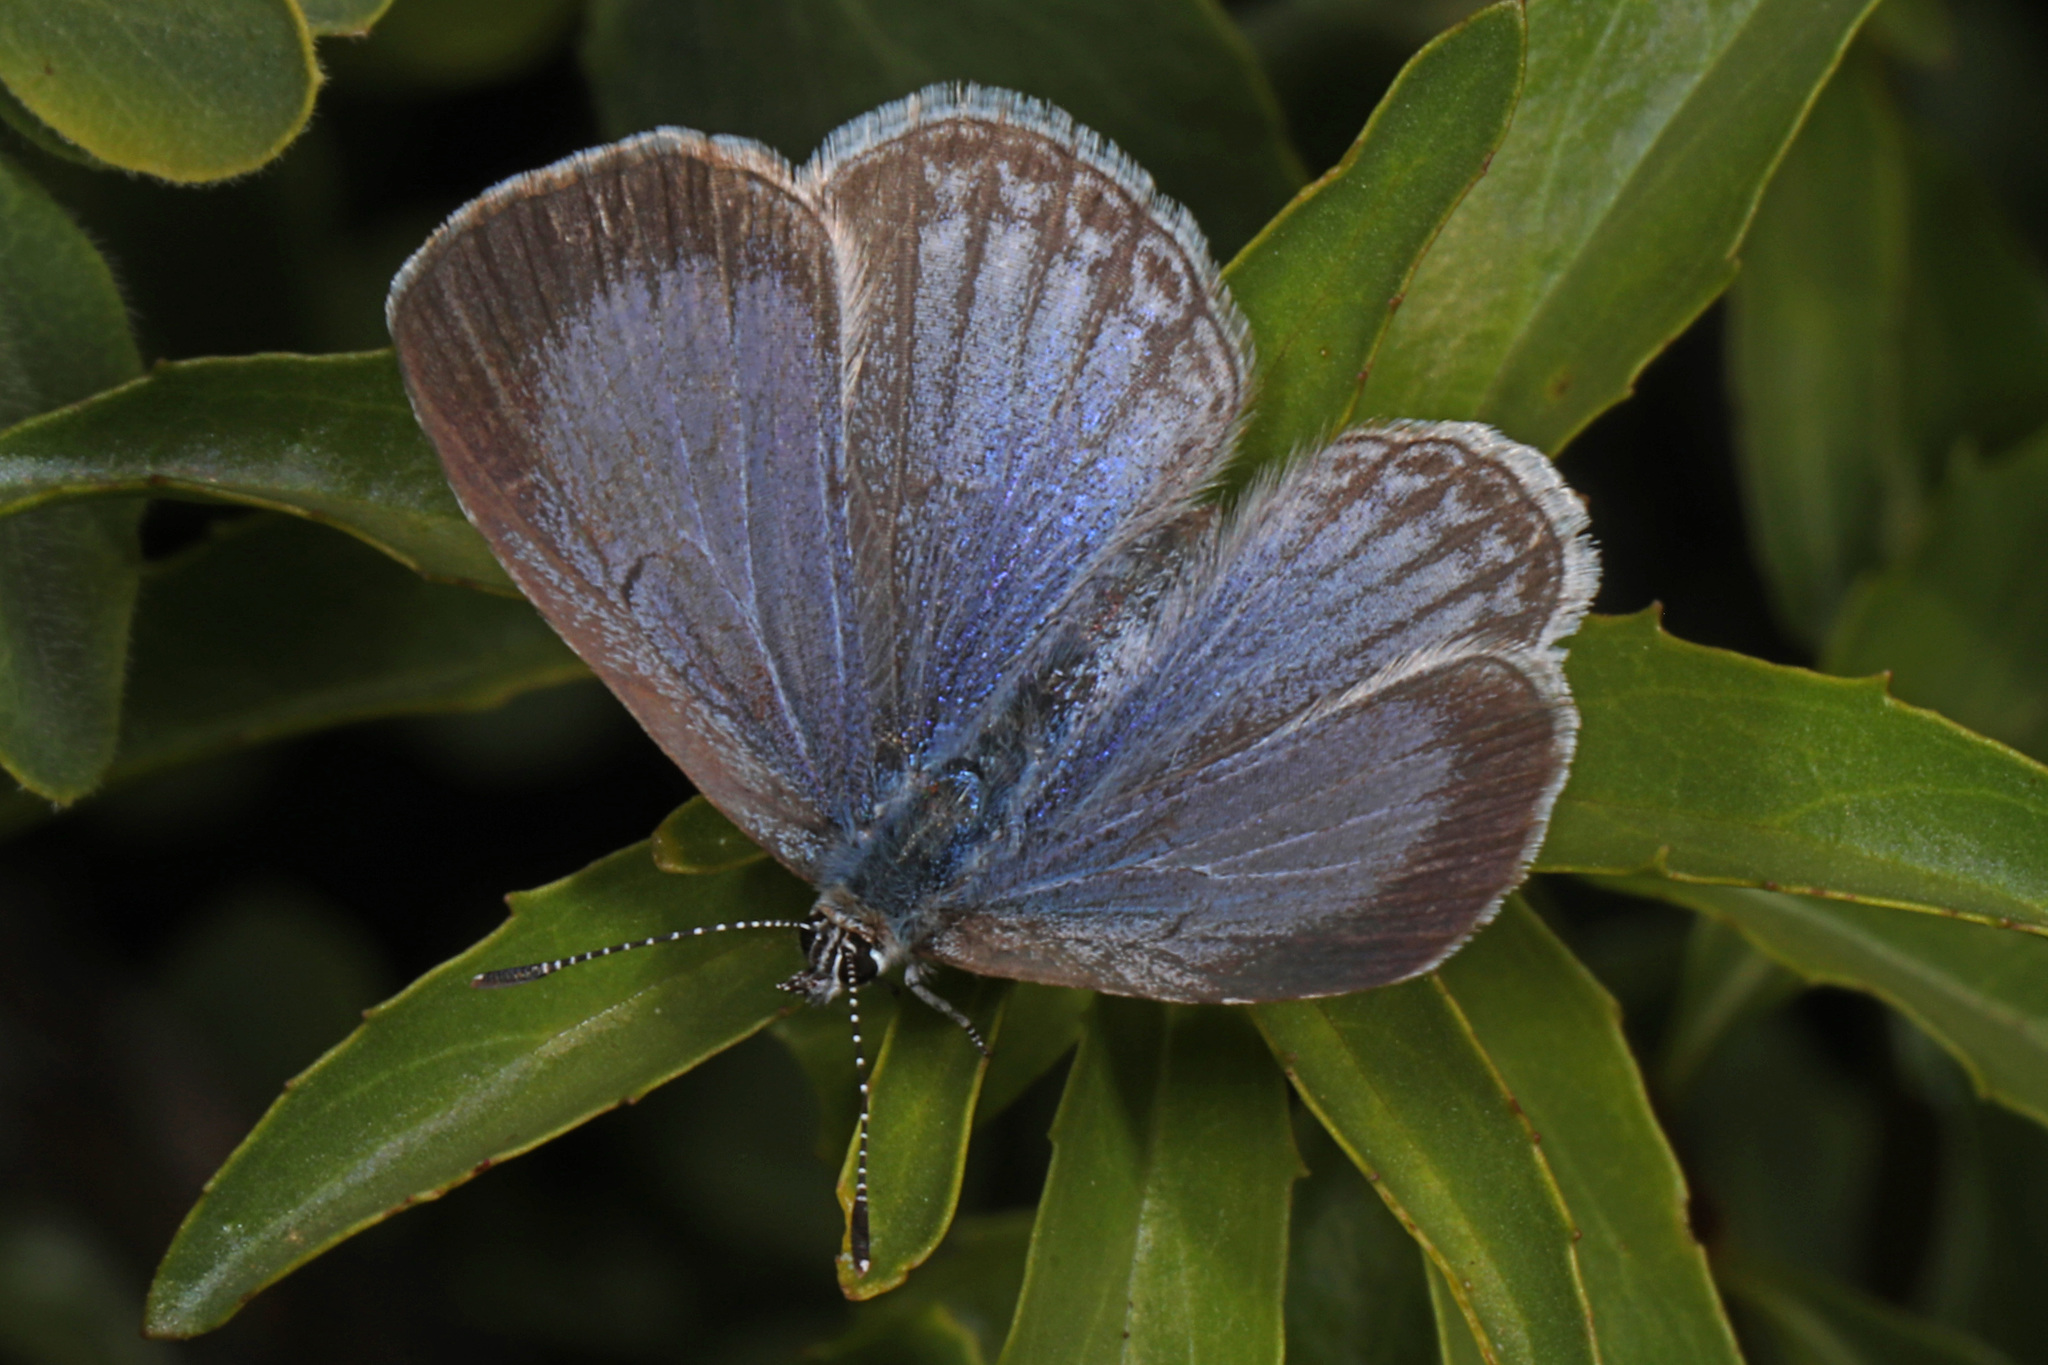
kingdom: Animalia
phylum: Arthropoda
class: Insecta
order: Lepidoptera
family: Lycaenidae
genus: Celastrina
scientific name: Celastrina ladon
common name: Spring azure
